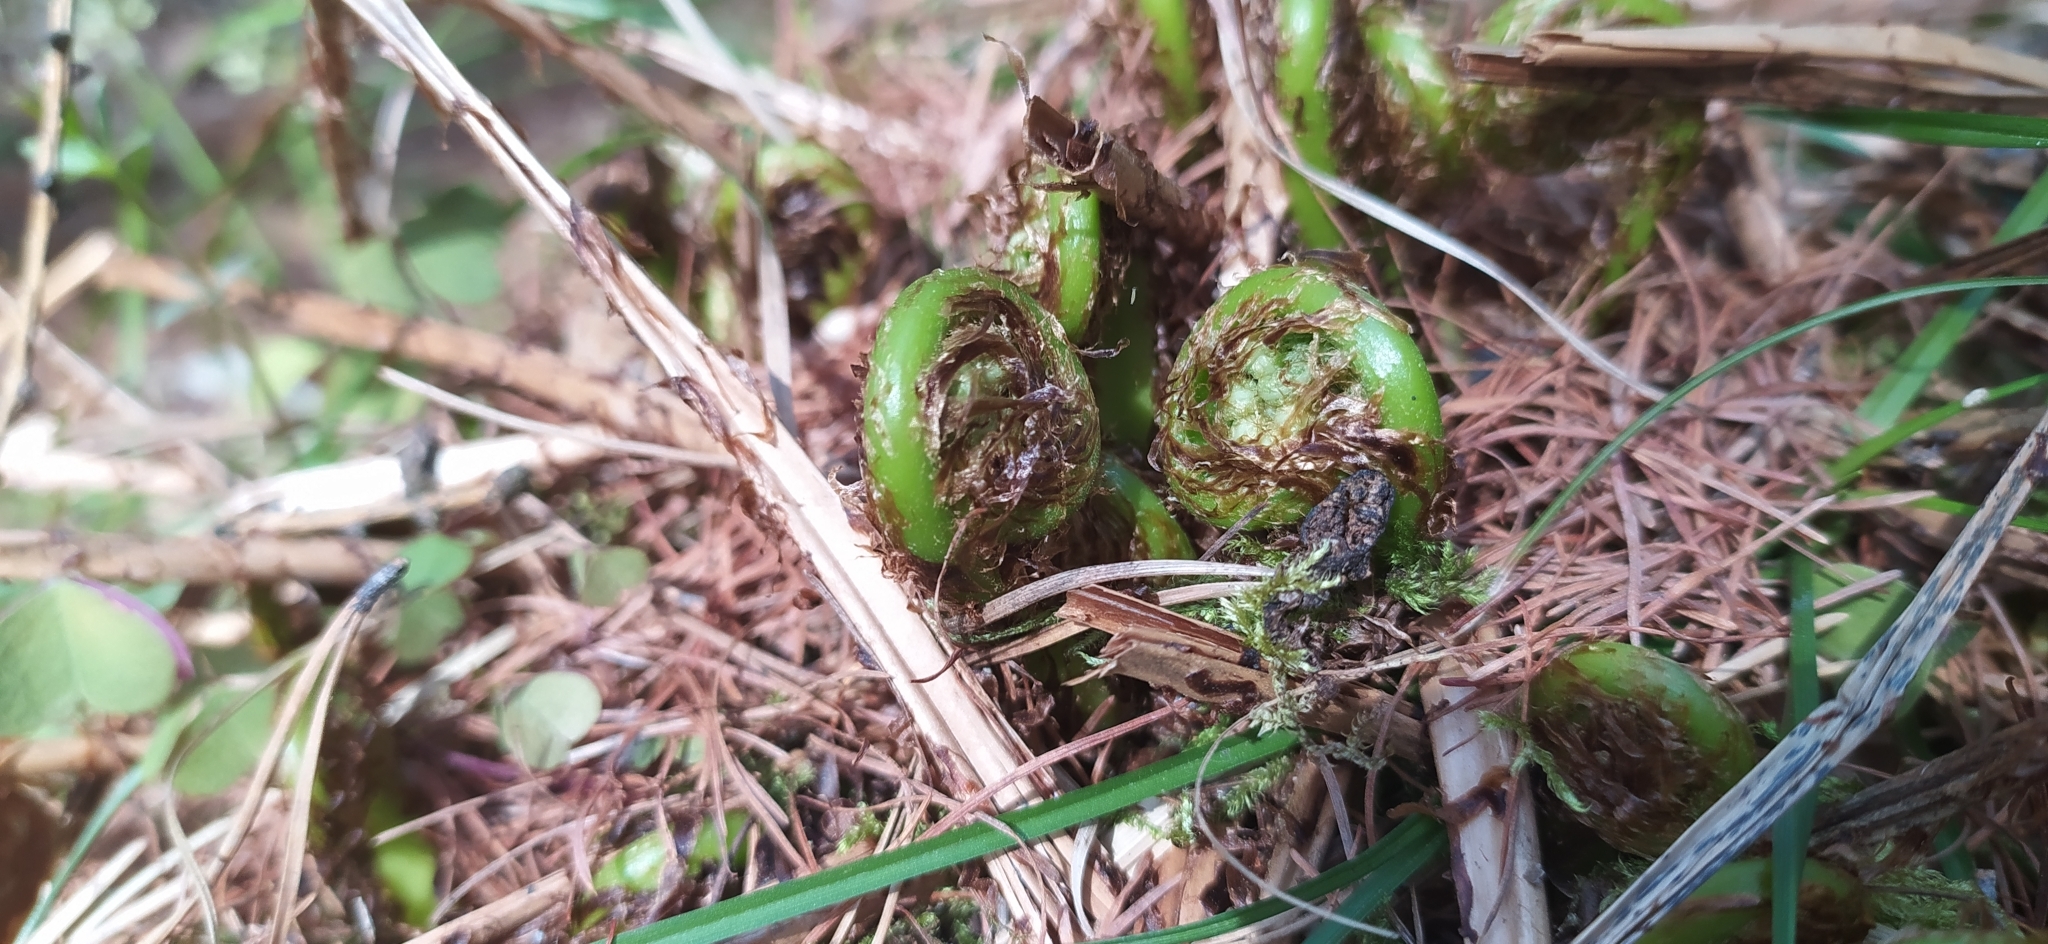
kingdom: Plantae
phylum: Tracheophyta
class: Polypodiopsida
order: Polypodiales
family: Athyriaceae
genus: Athyrium
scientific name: Athyrium filix-femina
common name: Lady fern
